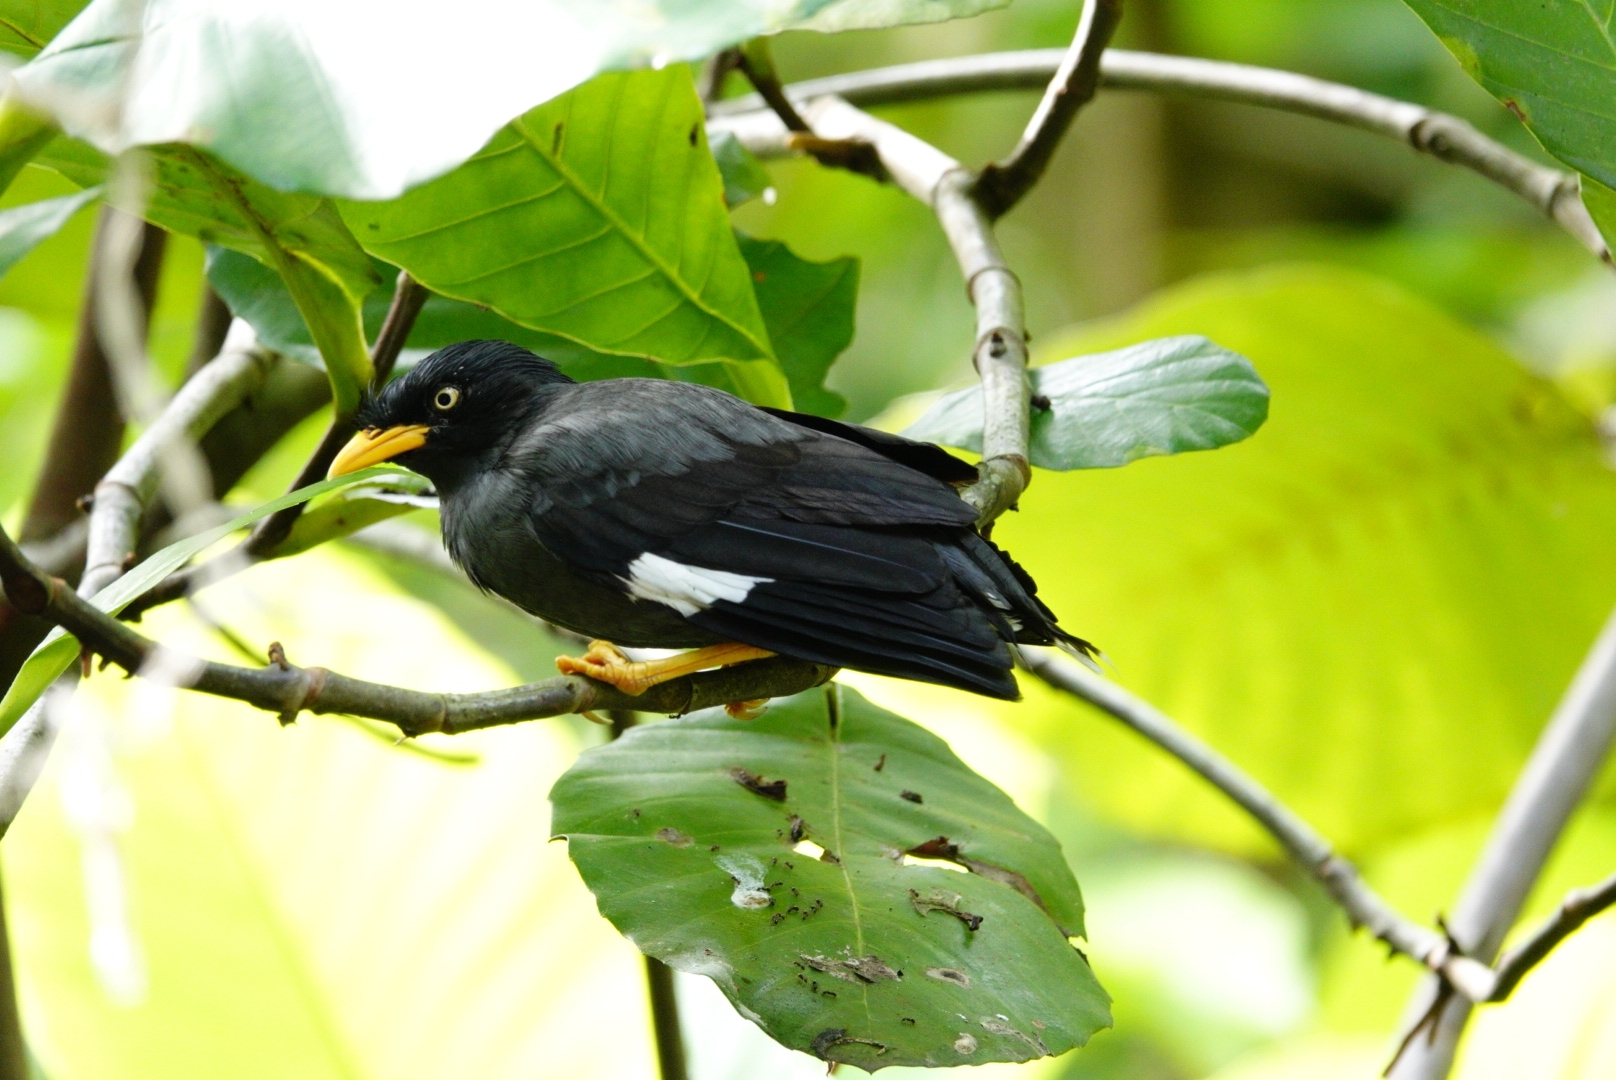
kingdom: Animalia
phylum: Chordata
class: Aves
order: Passeriformes
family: Sturnidae
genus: Acridotheres
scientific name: Acridotheres javanicus
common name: Javan myna
